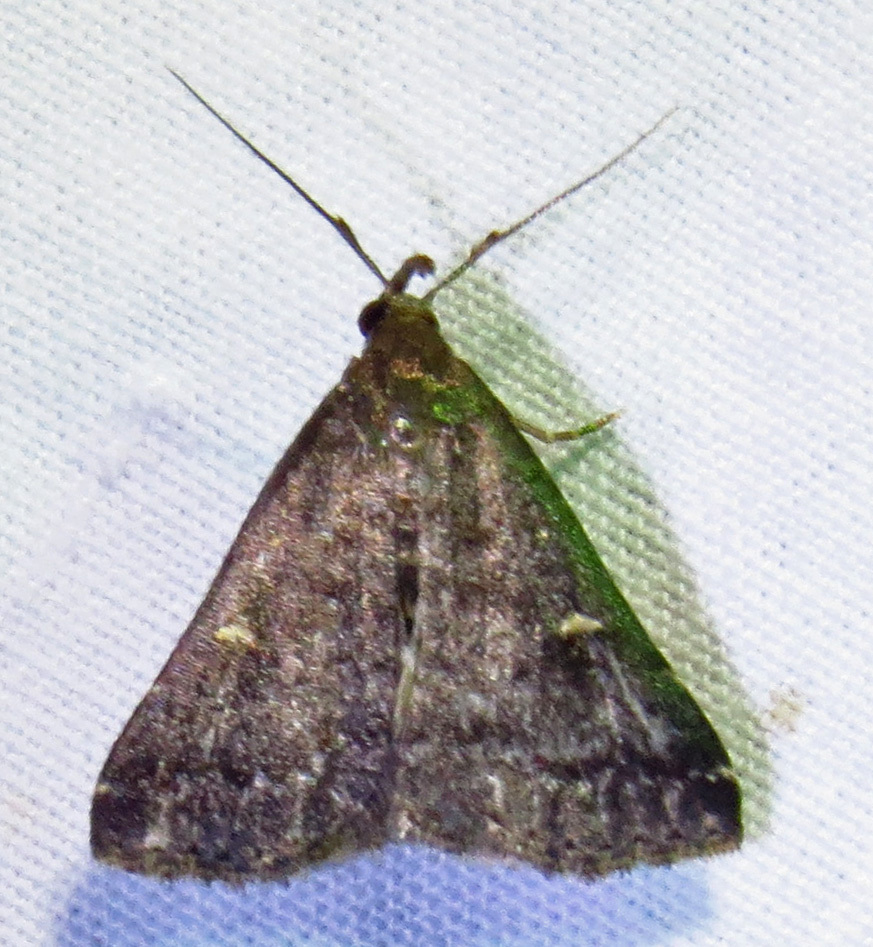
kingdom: Animalia
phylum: Arthropoda
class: Insecta
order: Lepidoptera
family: Erebidae
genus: Tetanolita
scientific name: Tetanolita mynesalis
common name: Smoky tetanolita moth
